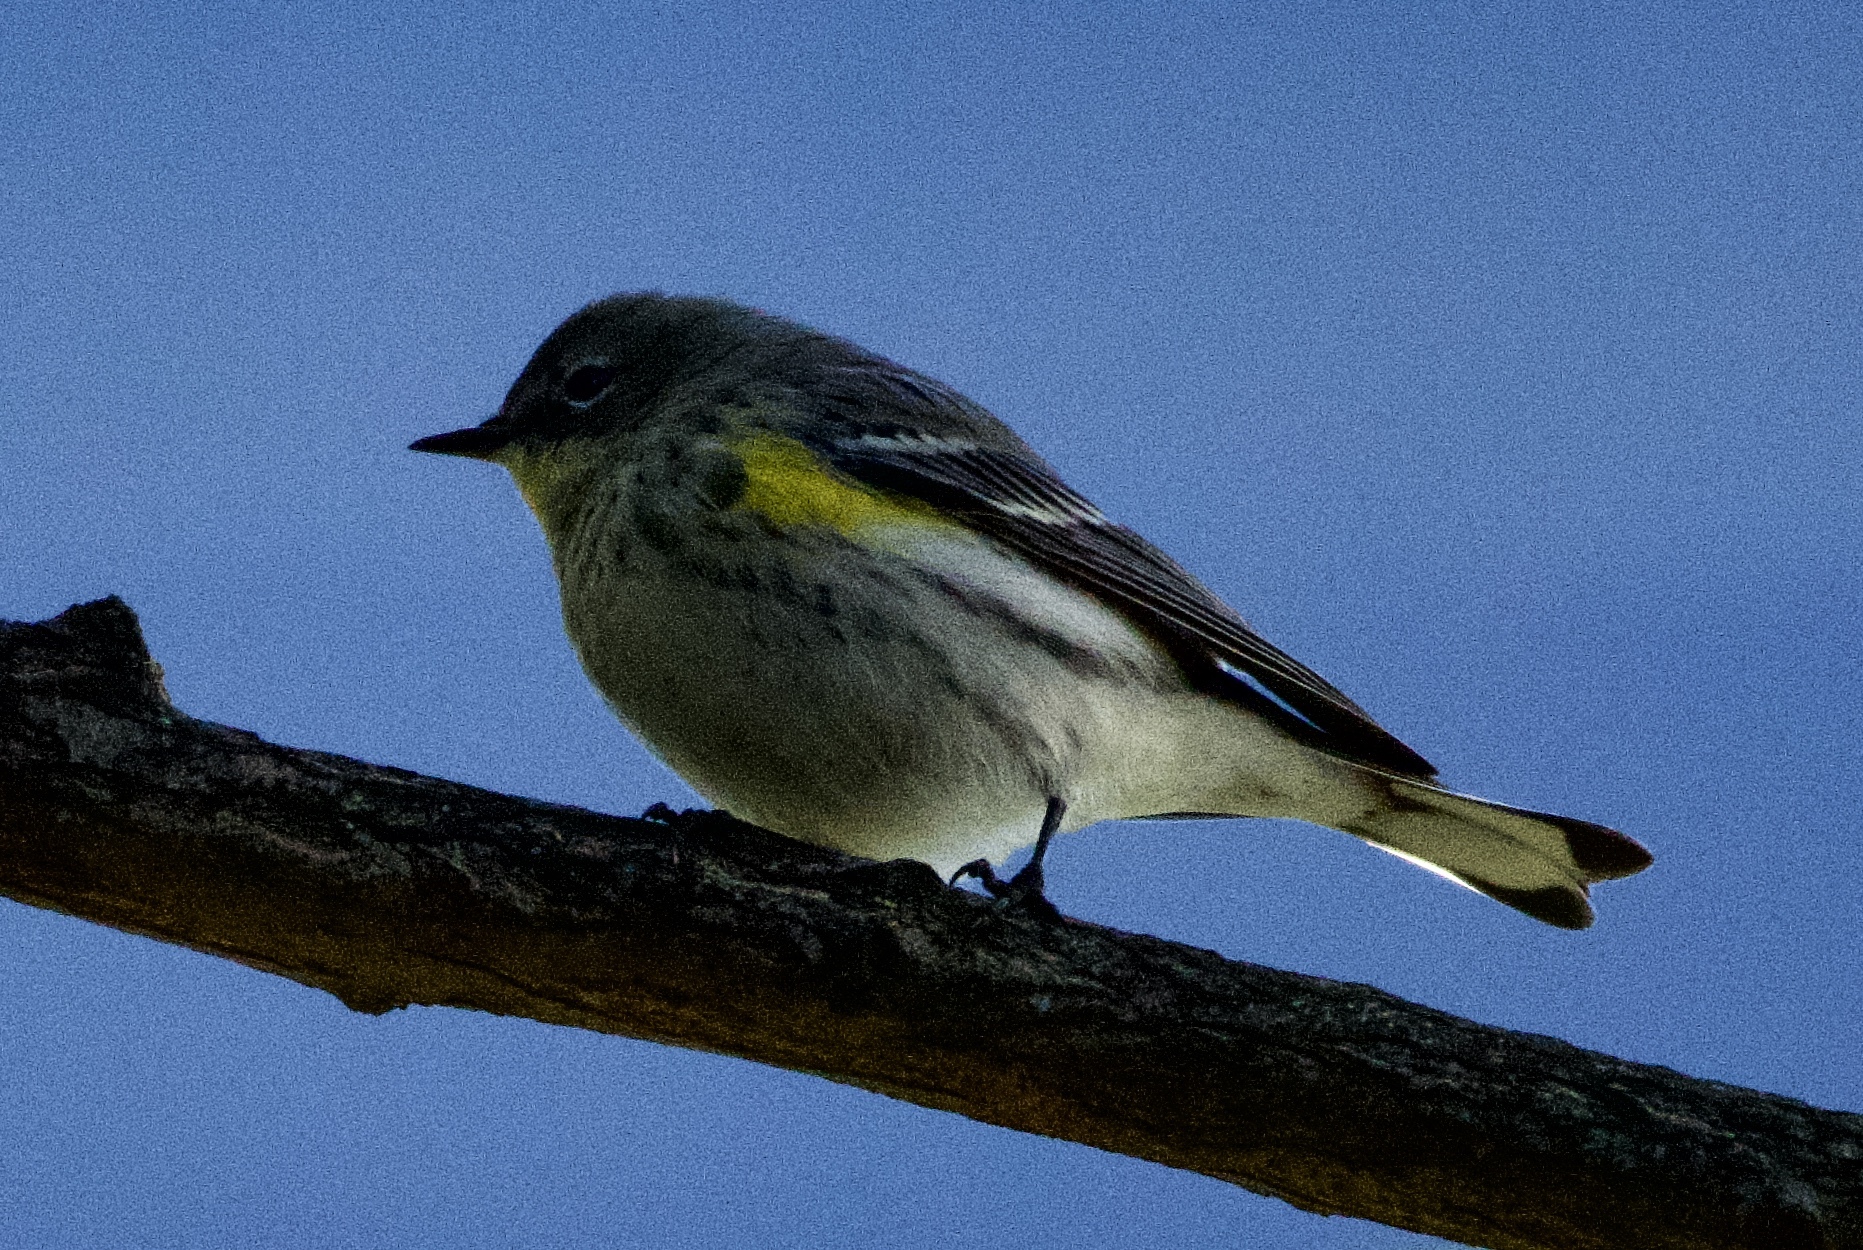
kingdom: Animalia
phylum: Chordata
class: Aves
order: Passeriformes
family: Parulidae
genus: Setophaga
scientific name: Setophaga coronata
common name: Myrtle warbler
